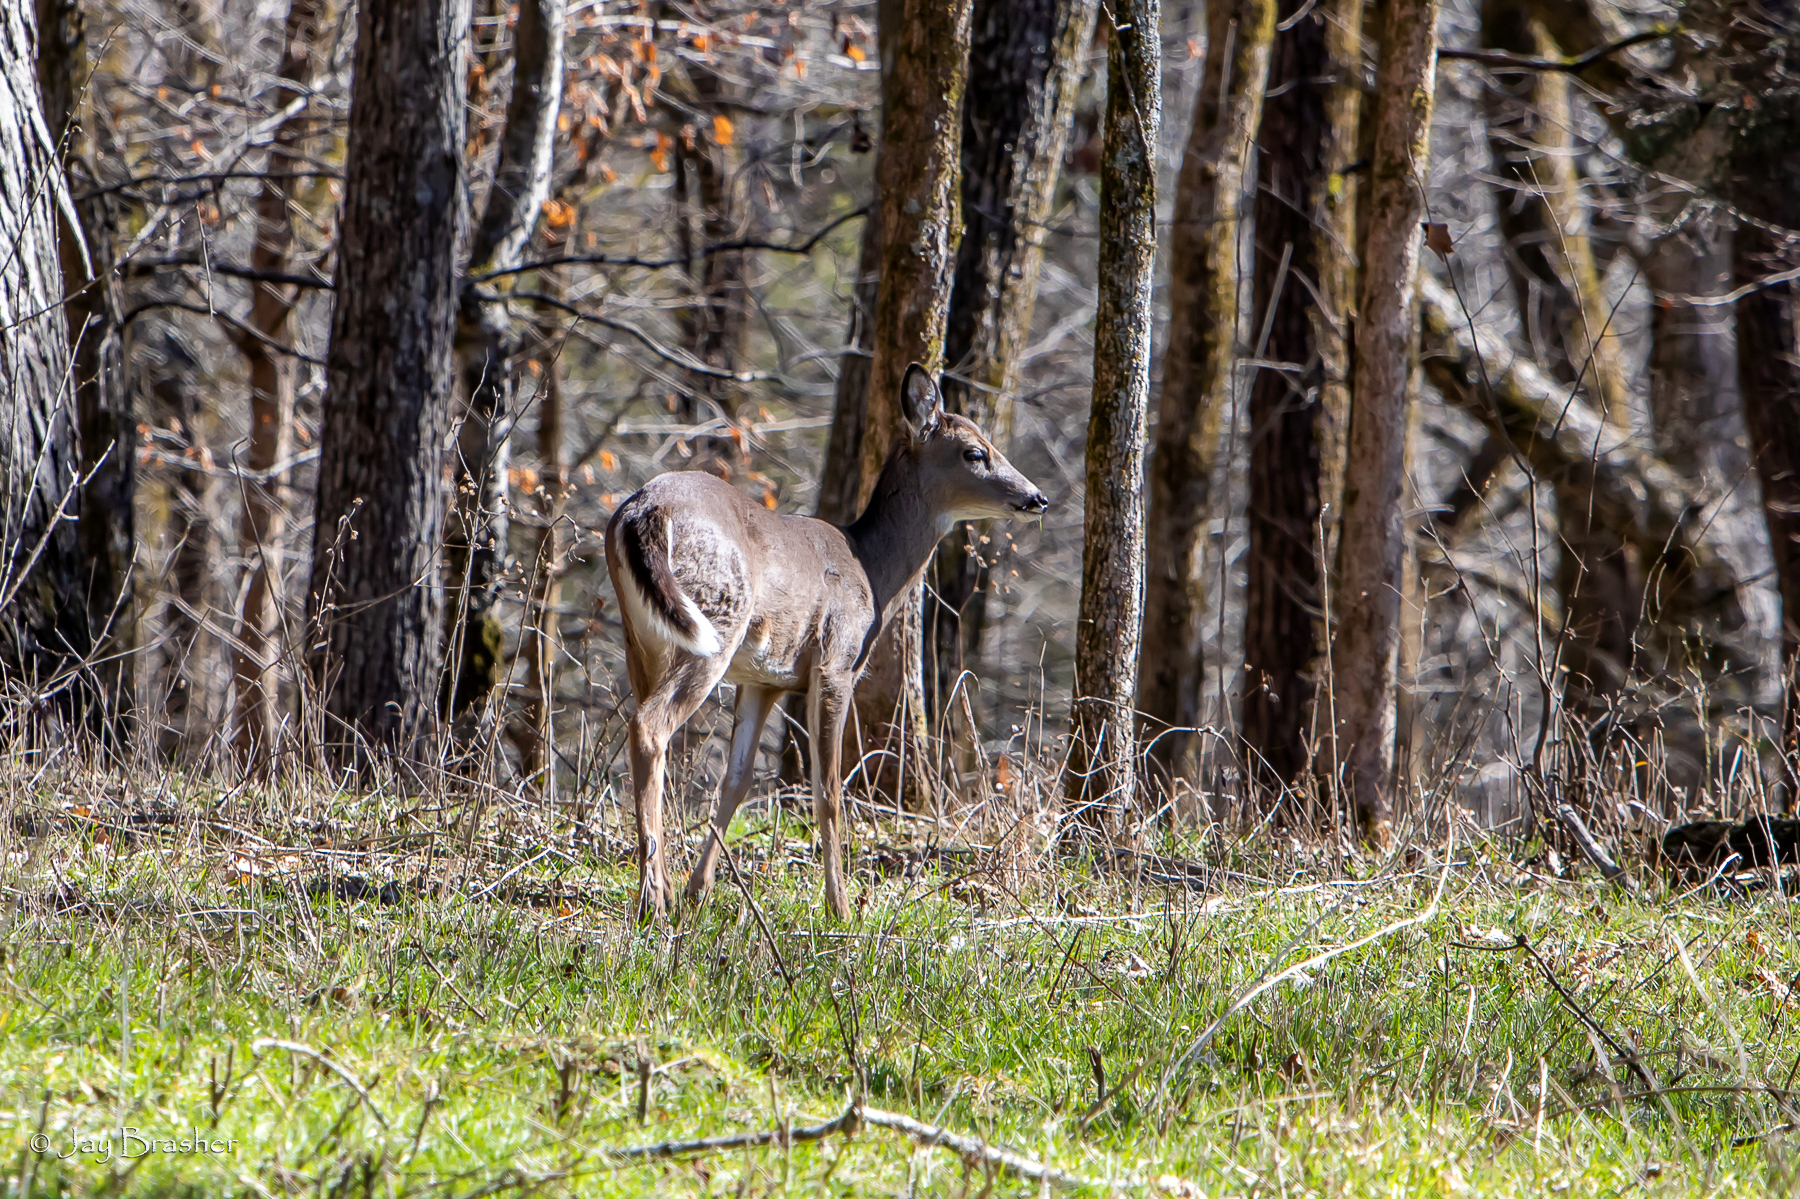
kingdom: Animalia
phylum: Chordata
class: Mammalia
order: Artiodactyla
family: Cervidae
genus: Odocoileus
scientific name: Odocoileus virginianus
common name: White-tailed deer
